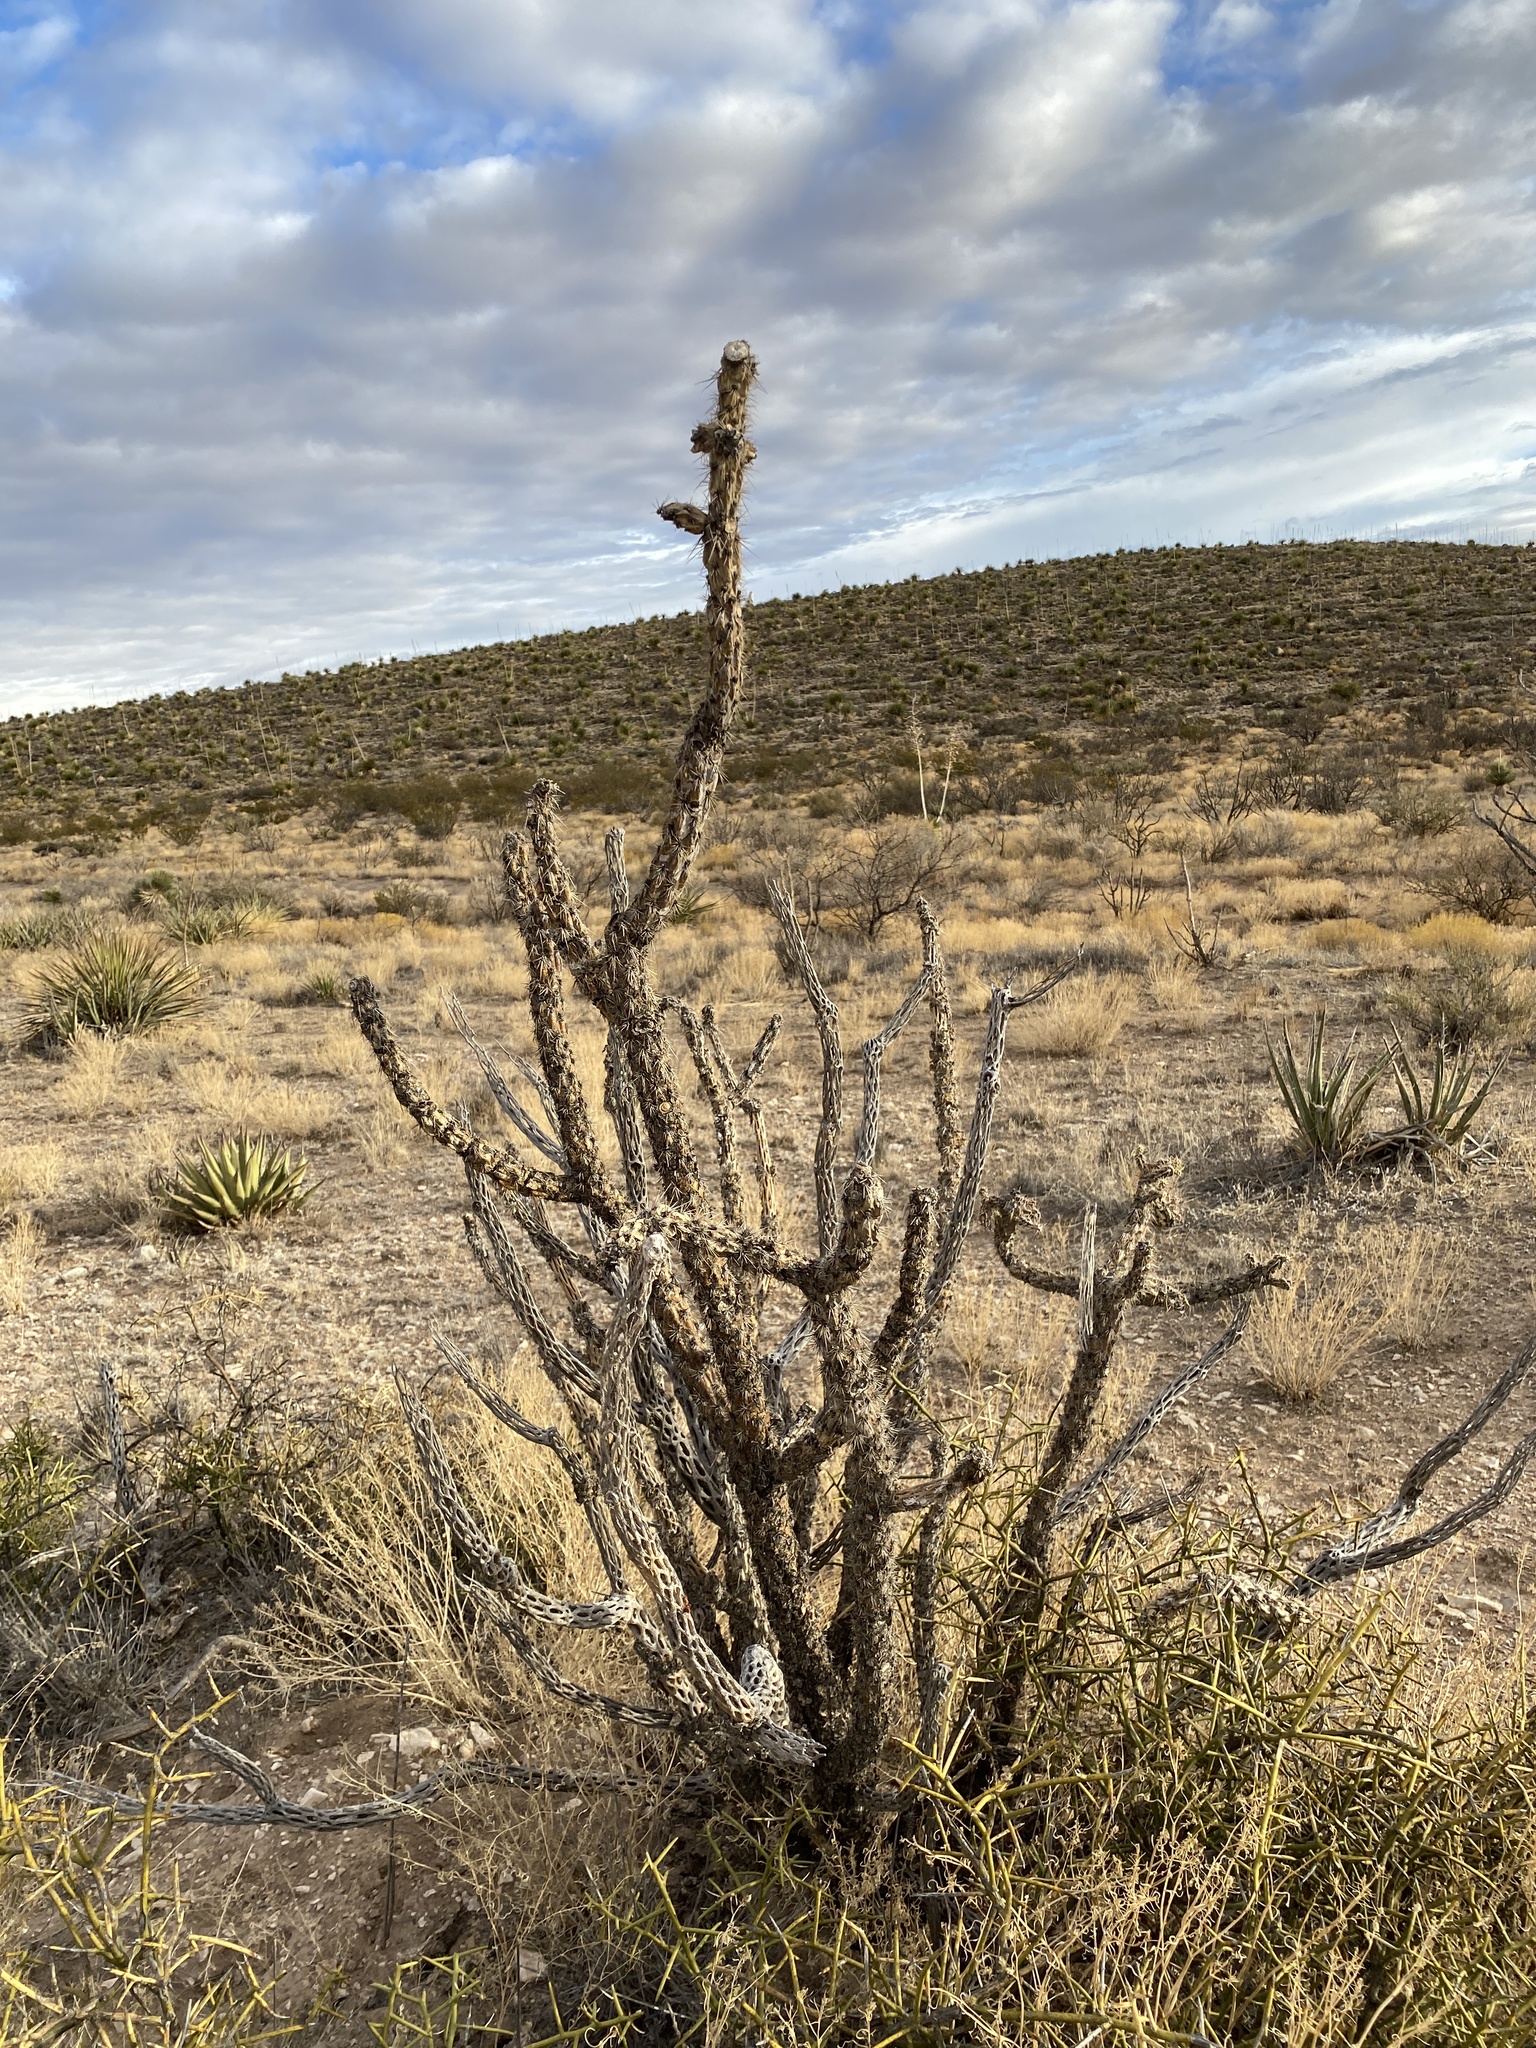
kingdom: Plantae
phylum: Tracheophyta
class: Magnoliopsida
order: Caryophyllales
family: Cactaceae
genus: Cylindropuntia
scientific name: Cylindropuntia imbricata
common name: Candelabrum cactus
